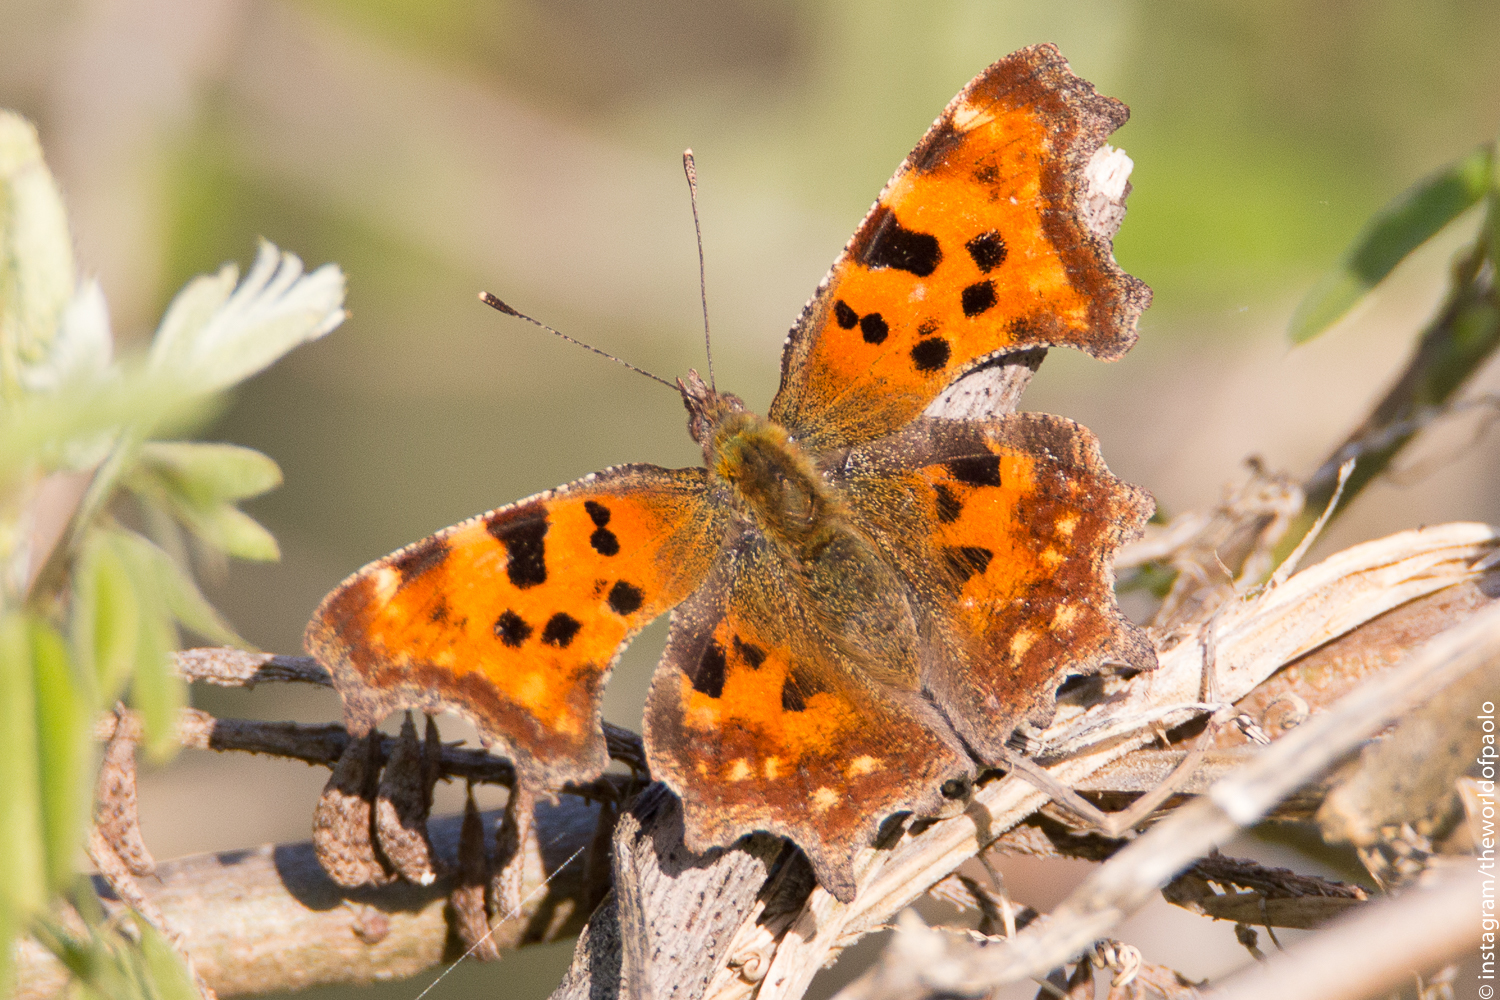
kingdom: Animalia
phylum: Arthropoda
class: Insecta
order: Lepidoptera
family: Nymphalidae
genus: Polygonia
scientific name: Polygonia c-album
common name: Comma
